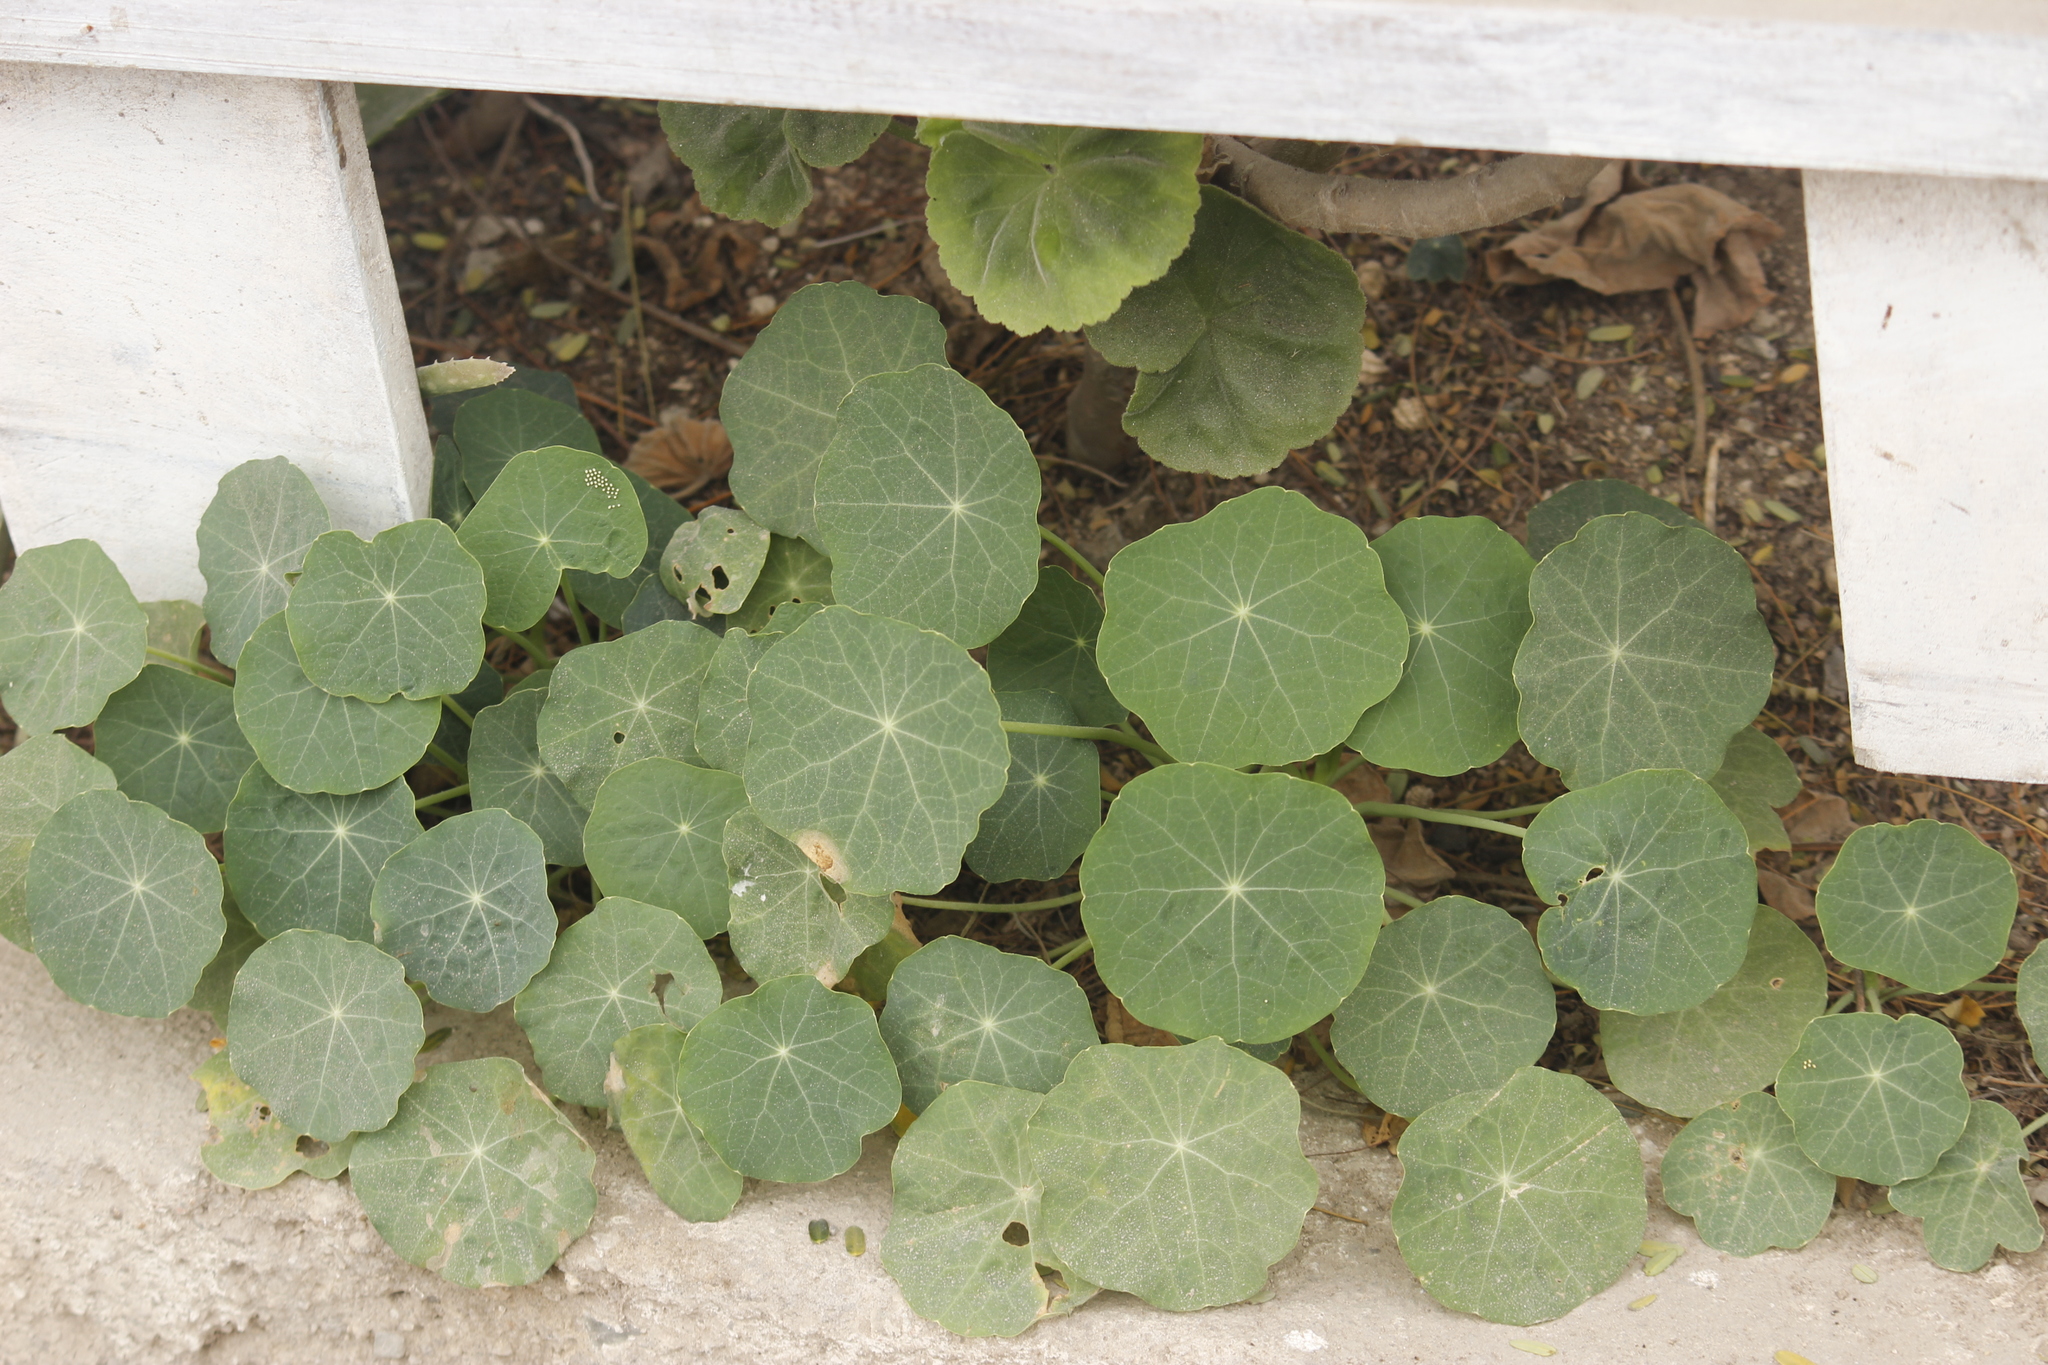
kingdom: Plantae
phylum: Tracheophyta
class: Magnoliopsida
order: Brassicales
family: Tropaeolaceae
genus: Tropaeolum
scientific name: Tropaeolum majus
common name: Nasturtium
